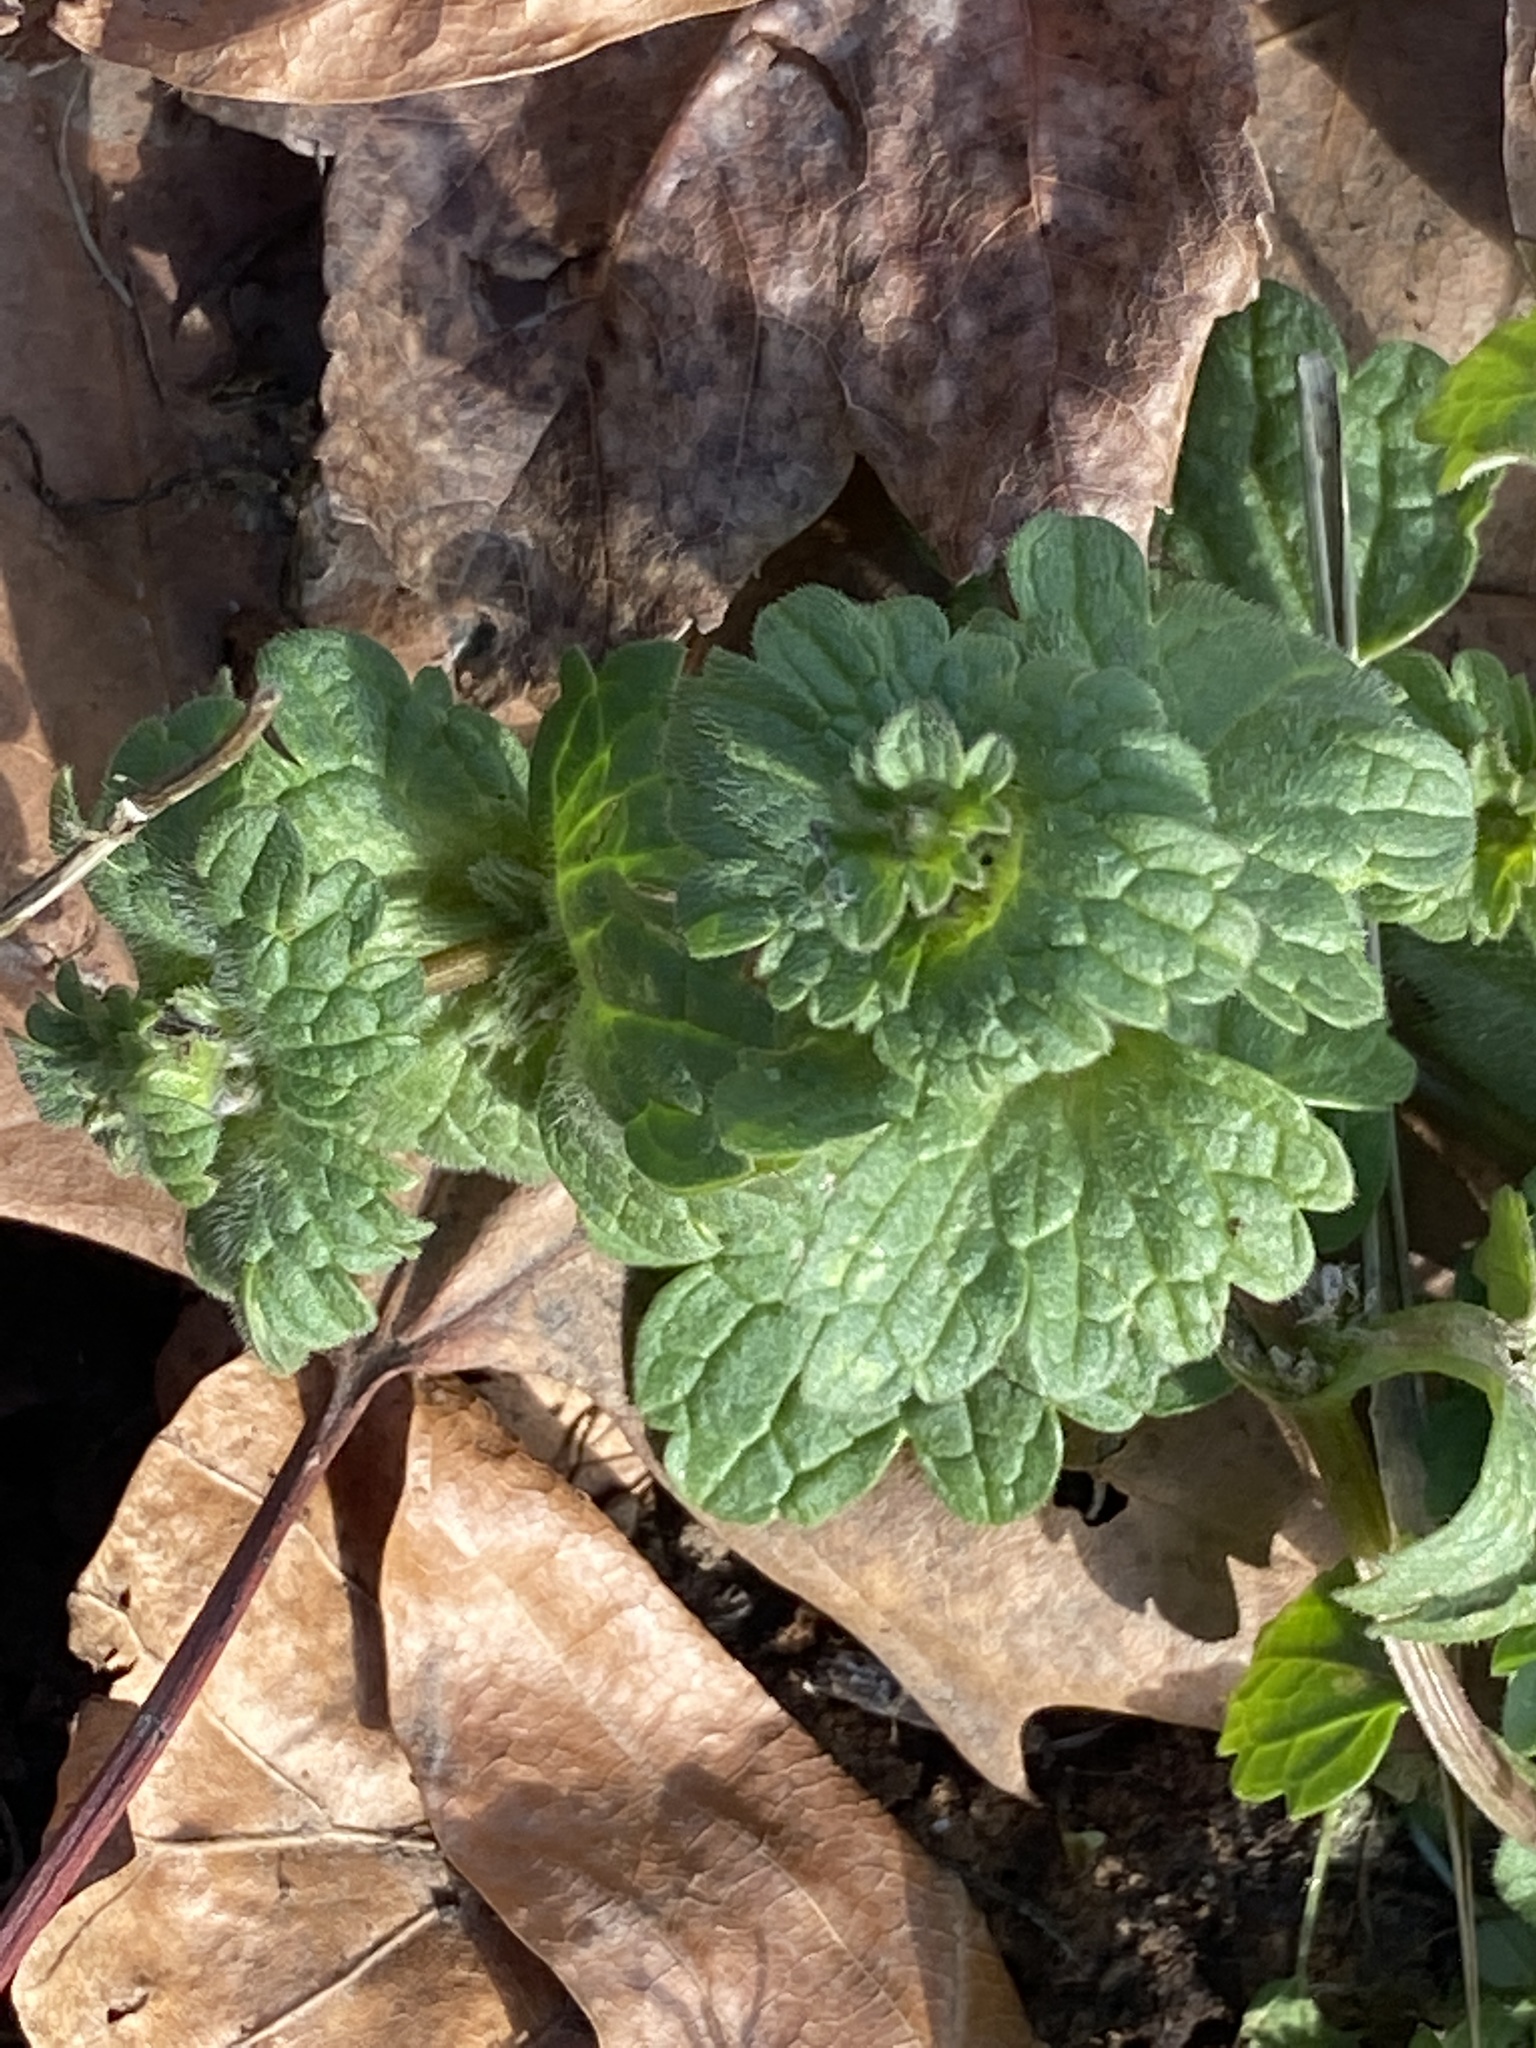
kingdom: Plantae
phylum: Tracheophyta
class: Magnoliopsida
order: Lamiales
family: Lamiaceae
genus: Lamium
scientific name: Lamium amplexicaule
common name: Henbit dead-nettle
